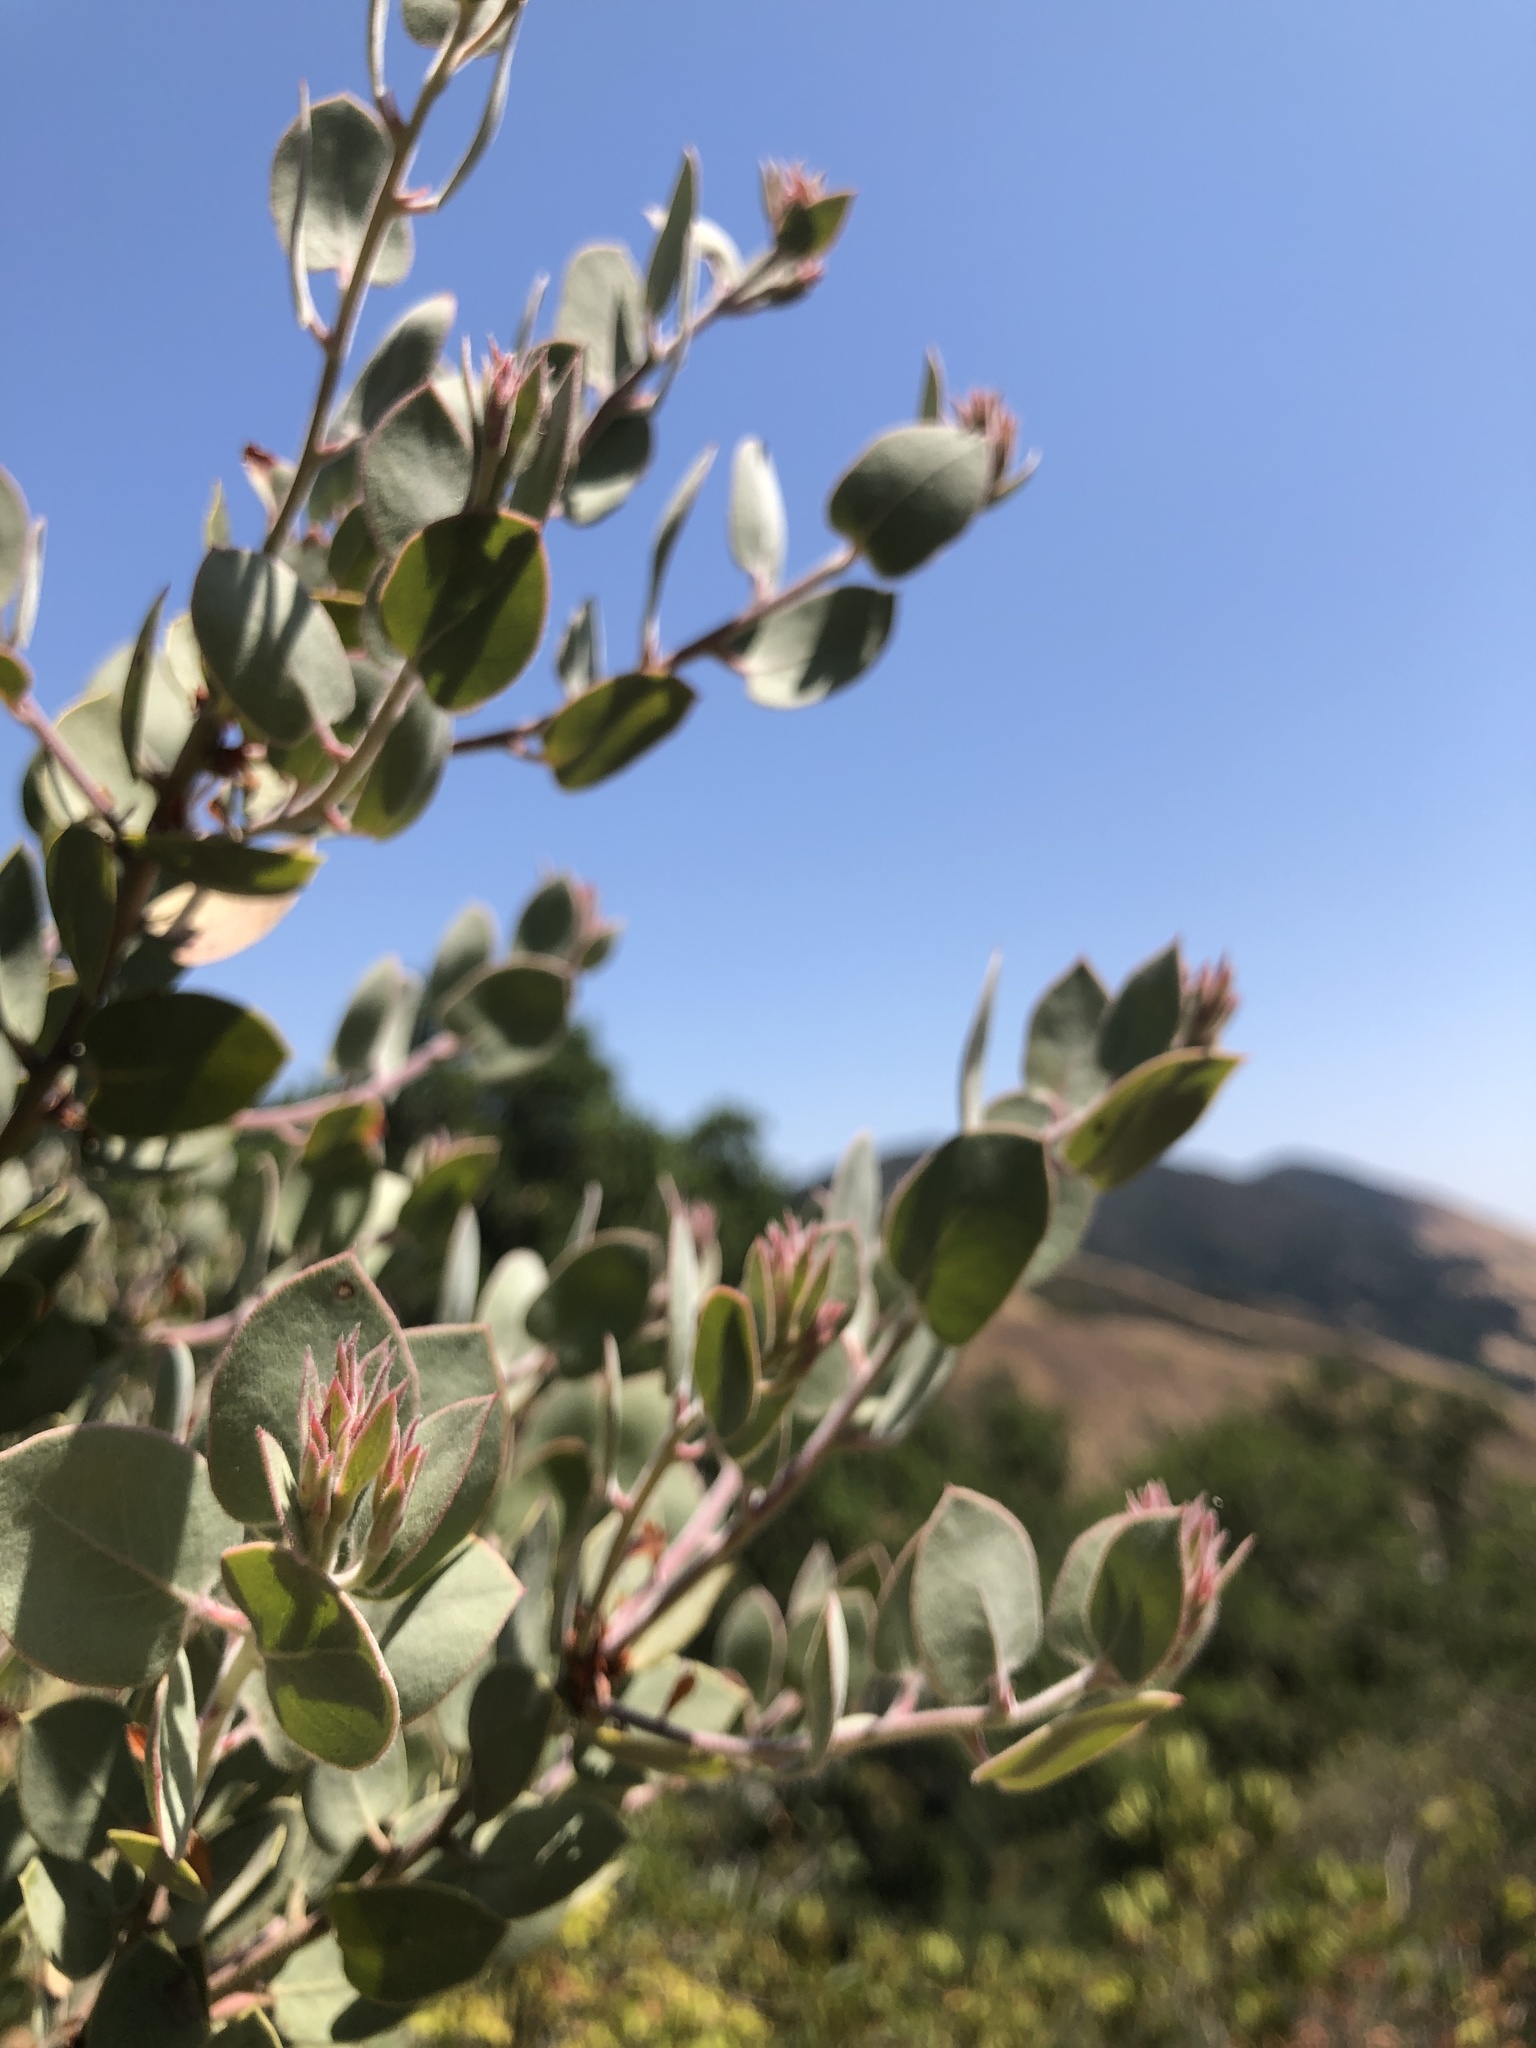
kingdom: Plantae
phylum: Tracheophyta
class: Magnoliopsida
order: Ericales
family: Ericaceae
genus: Arctostaphylos
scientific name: Arctostaphylos obispoensis
